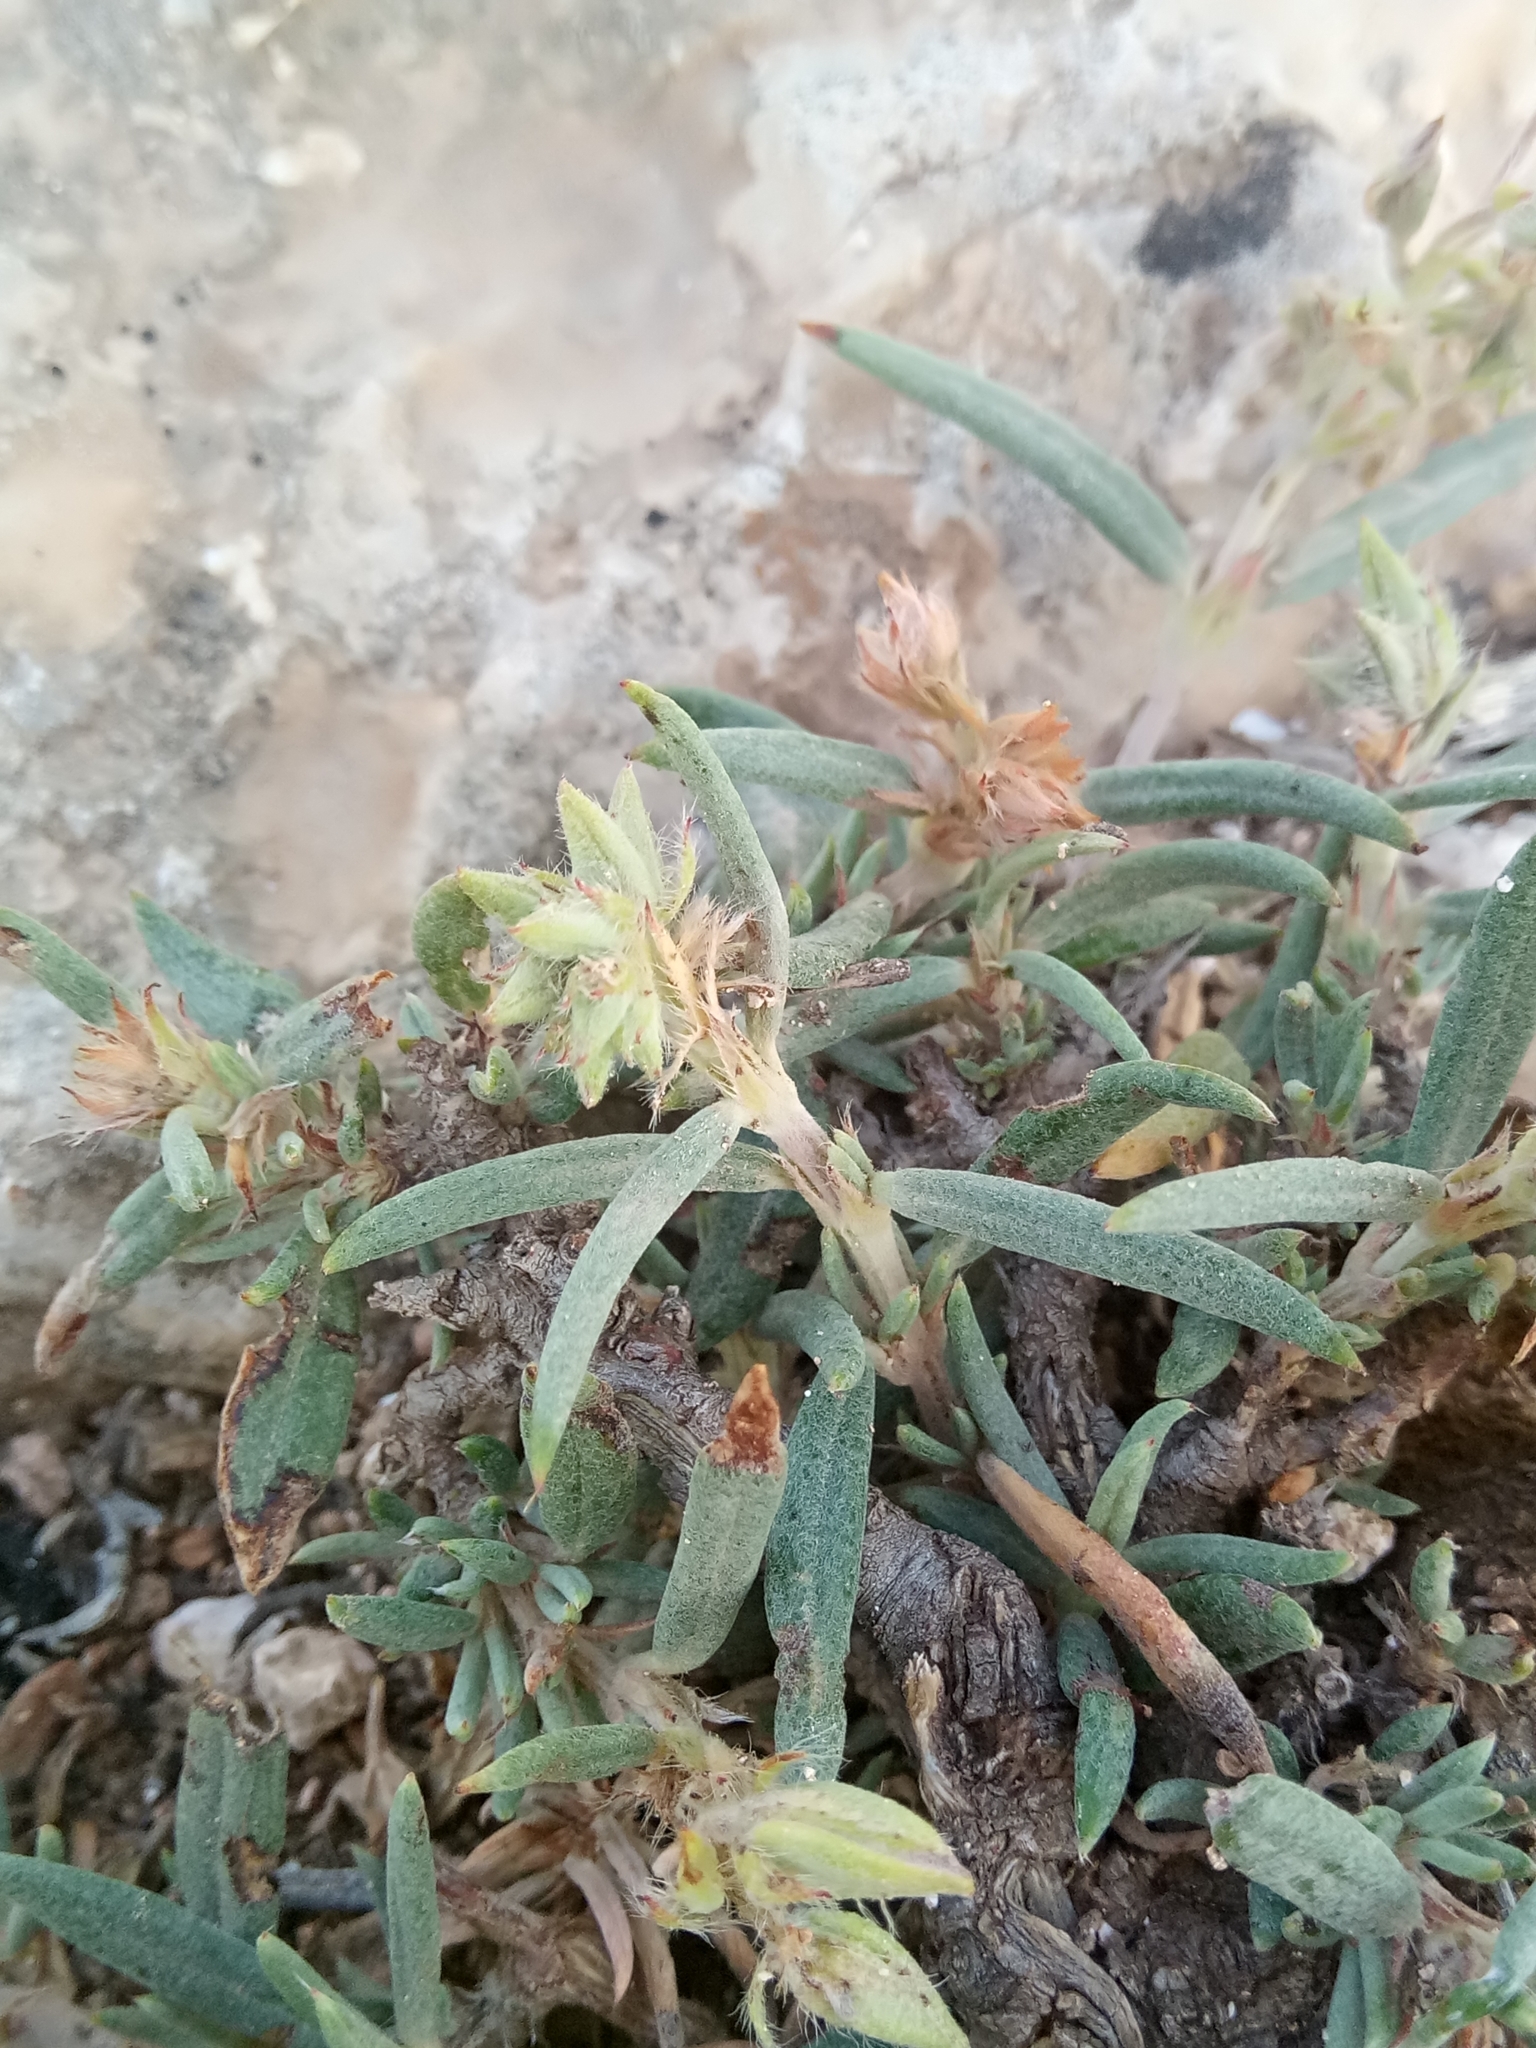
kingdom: Plantae
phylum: Tracheophyta
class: Magnoliopsida
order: Malvales
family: Cistaceae
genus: Helianthemum
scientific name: Helianthemum syriacum
